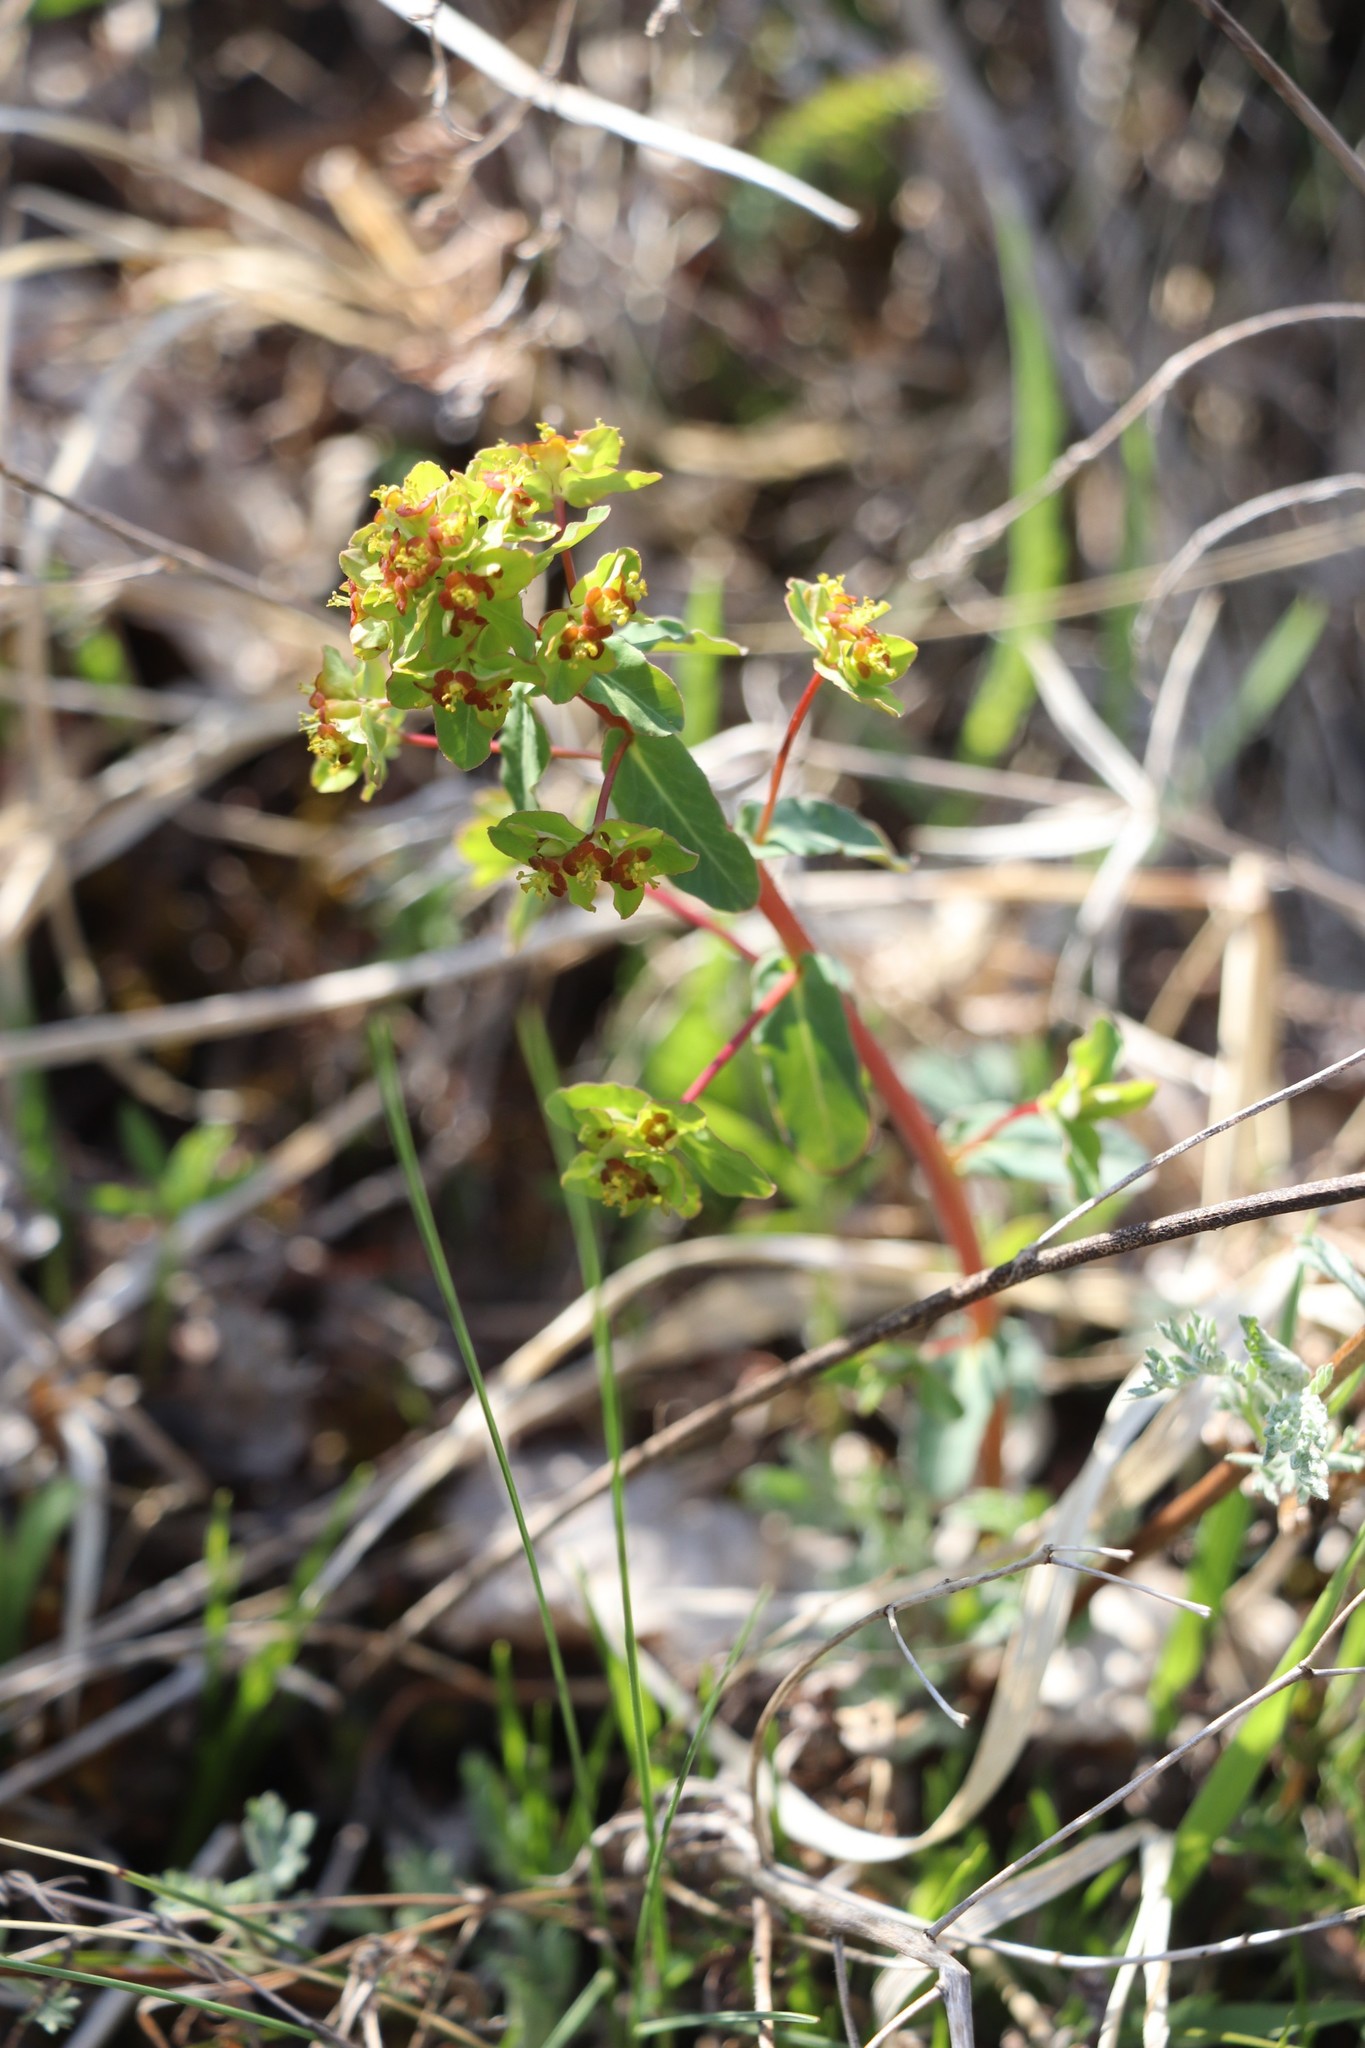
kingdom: Plantae
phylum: Tracheophyta
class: Magnoliopsida
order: Malpighiales
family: Euphorbiaceae
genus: Euphorbia
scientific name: Euphorbia alpina
